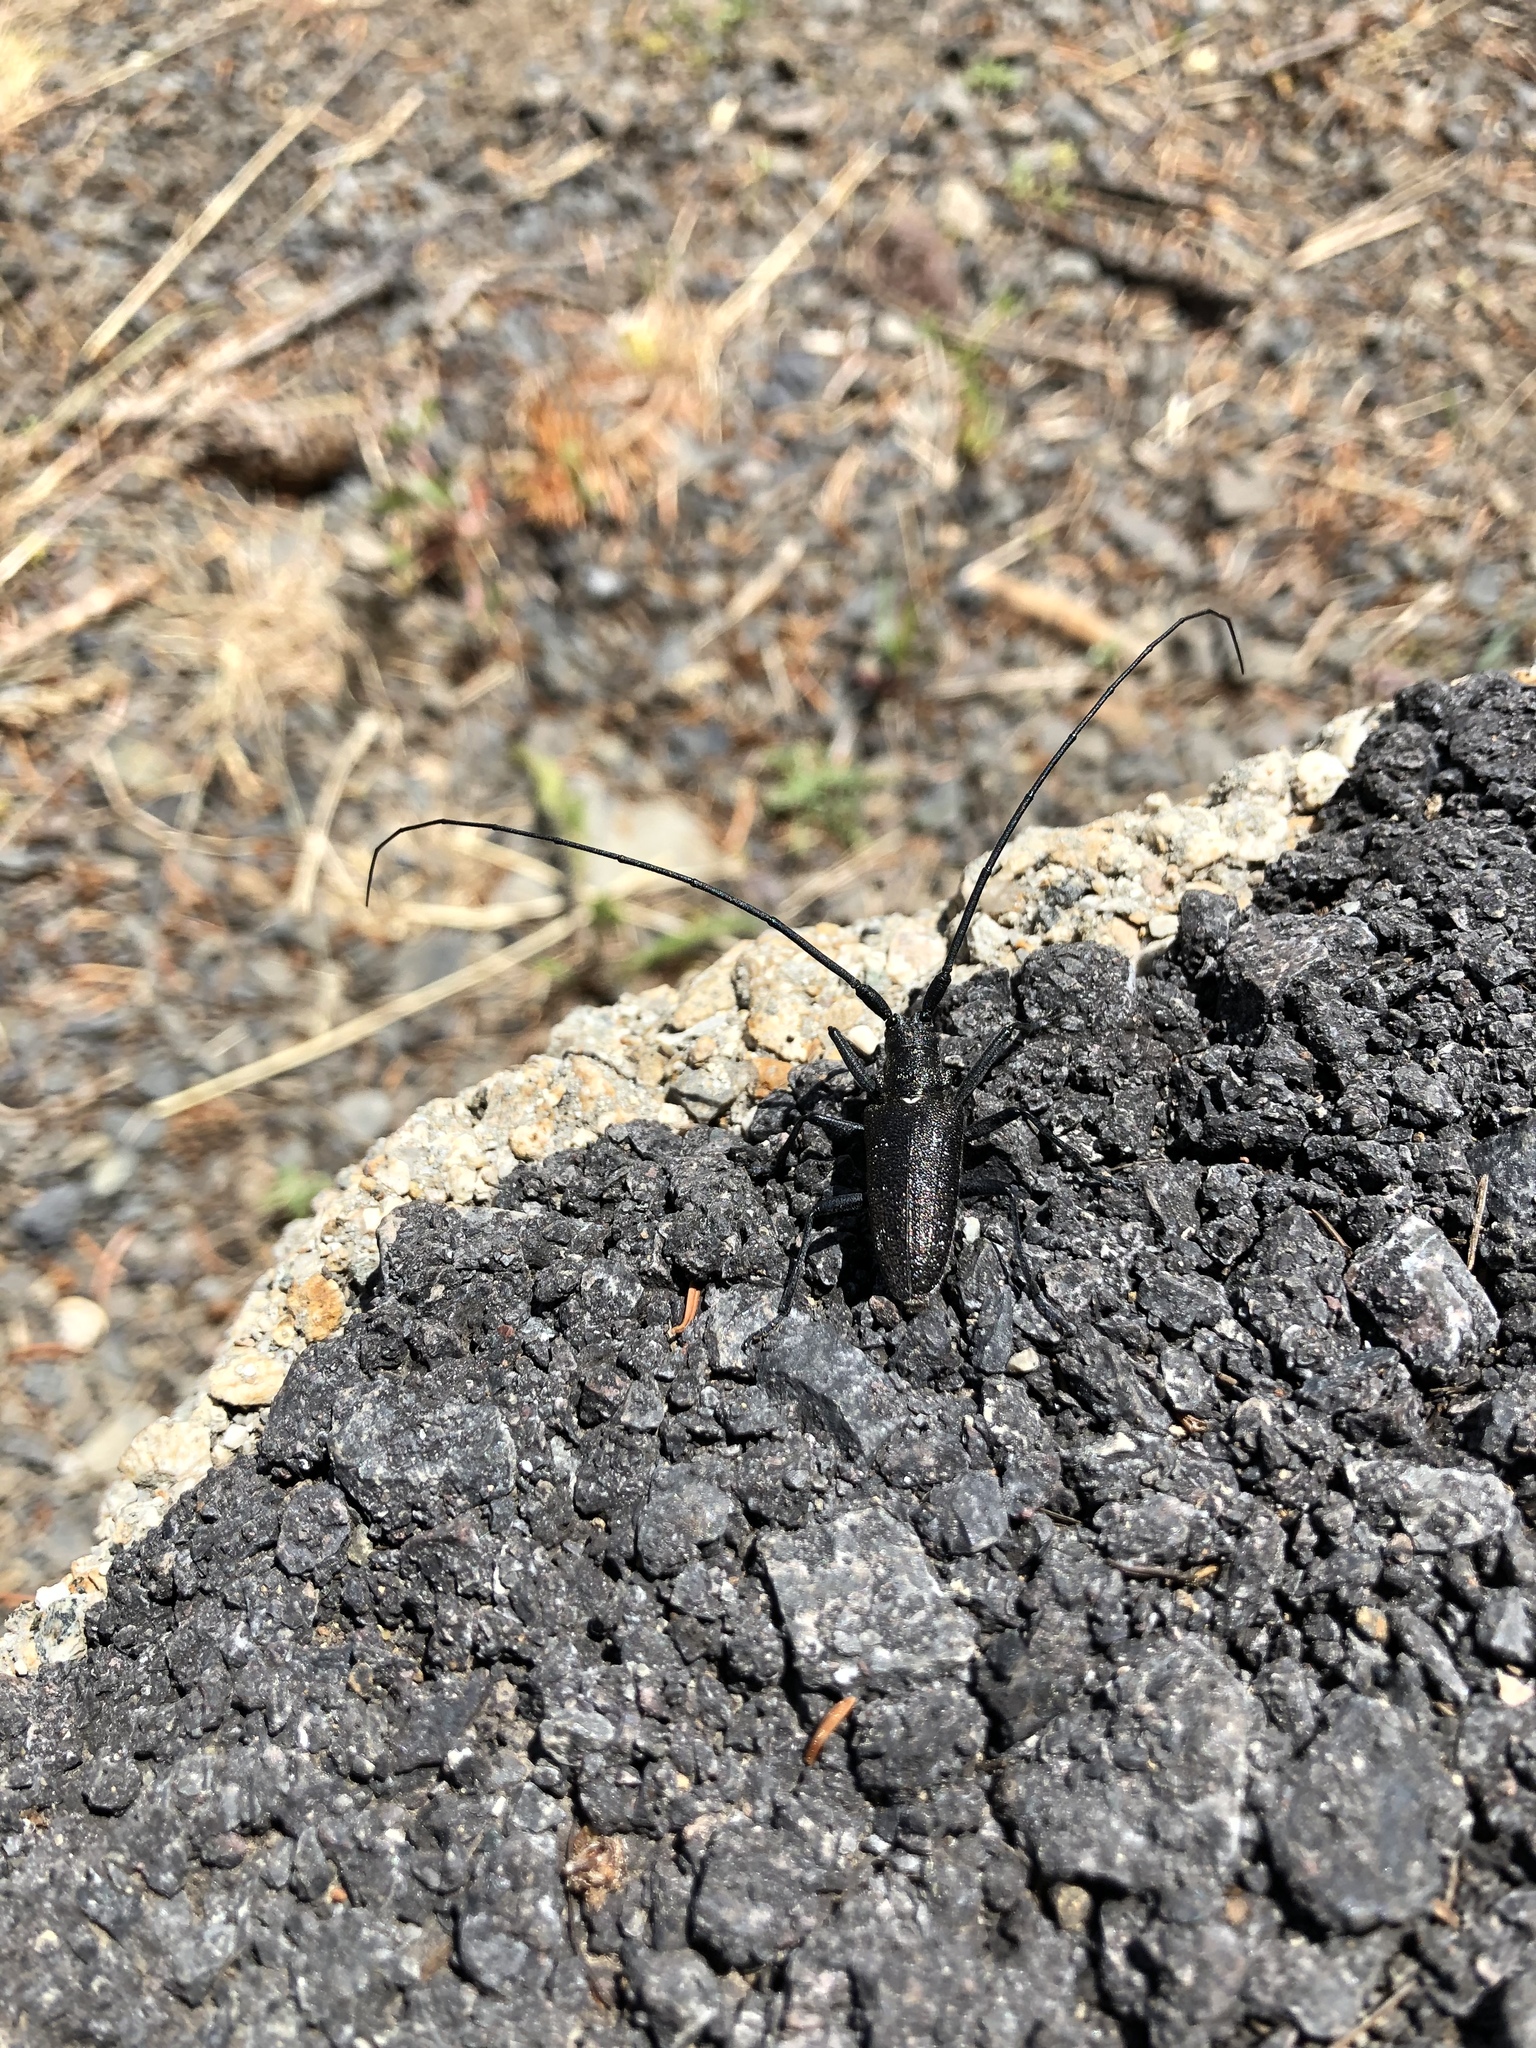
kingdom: Animalia
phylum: Arthropoda
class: Insecta
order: Coleoptera
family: Cerambycidae
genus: Monochamus
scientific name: Monochamus scutellatus
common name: White-spotted sawyer beetle
